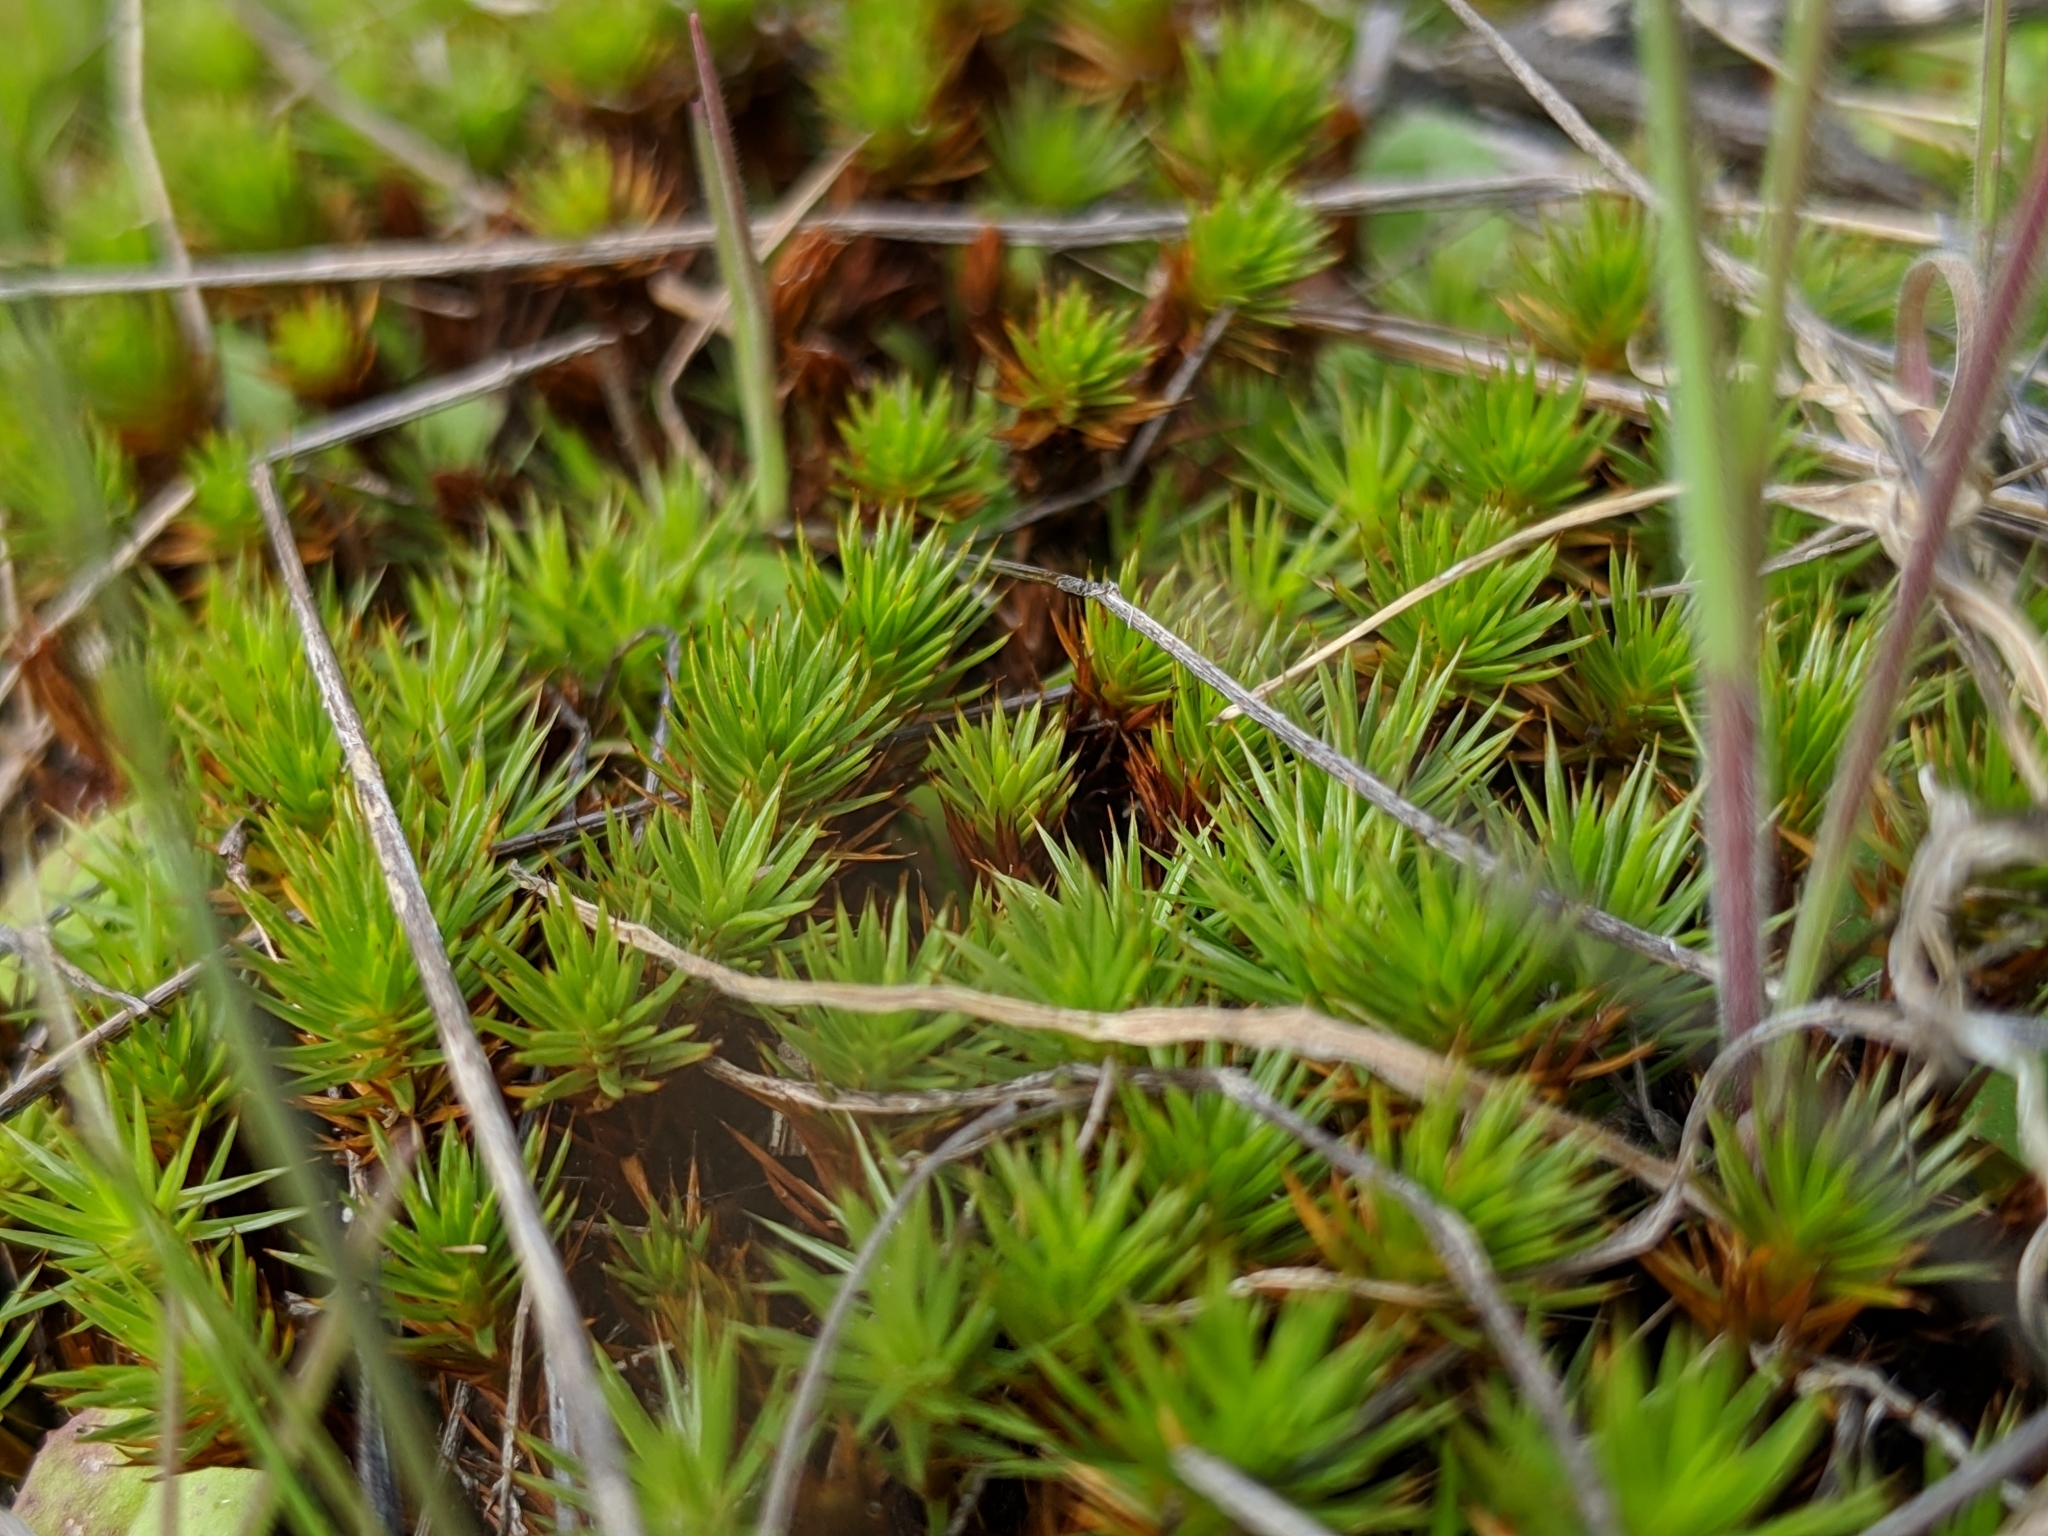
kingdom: Plantae
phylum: Bryophyta
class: Polytrichopsida
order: Polytrichales
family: Polytrichaceae
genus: Polytrichum
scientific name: Polytrichum juniperinum
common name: Juniper haircap moss
